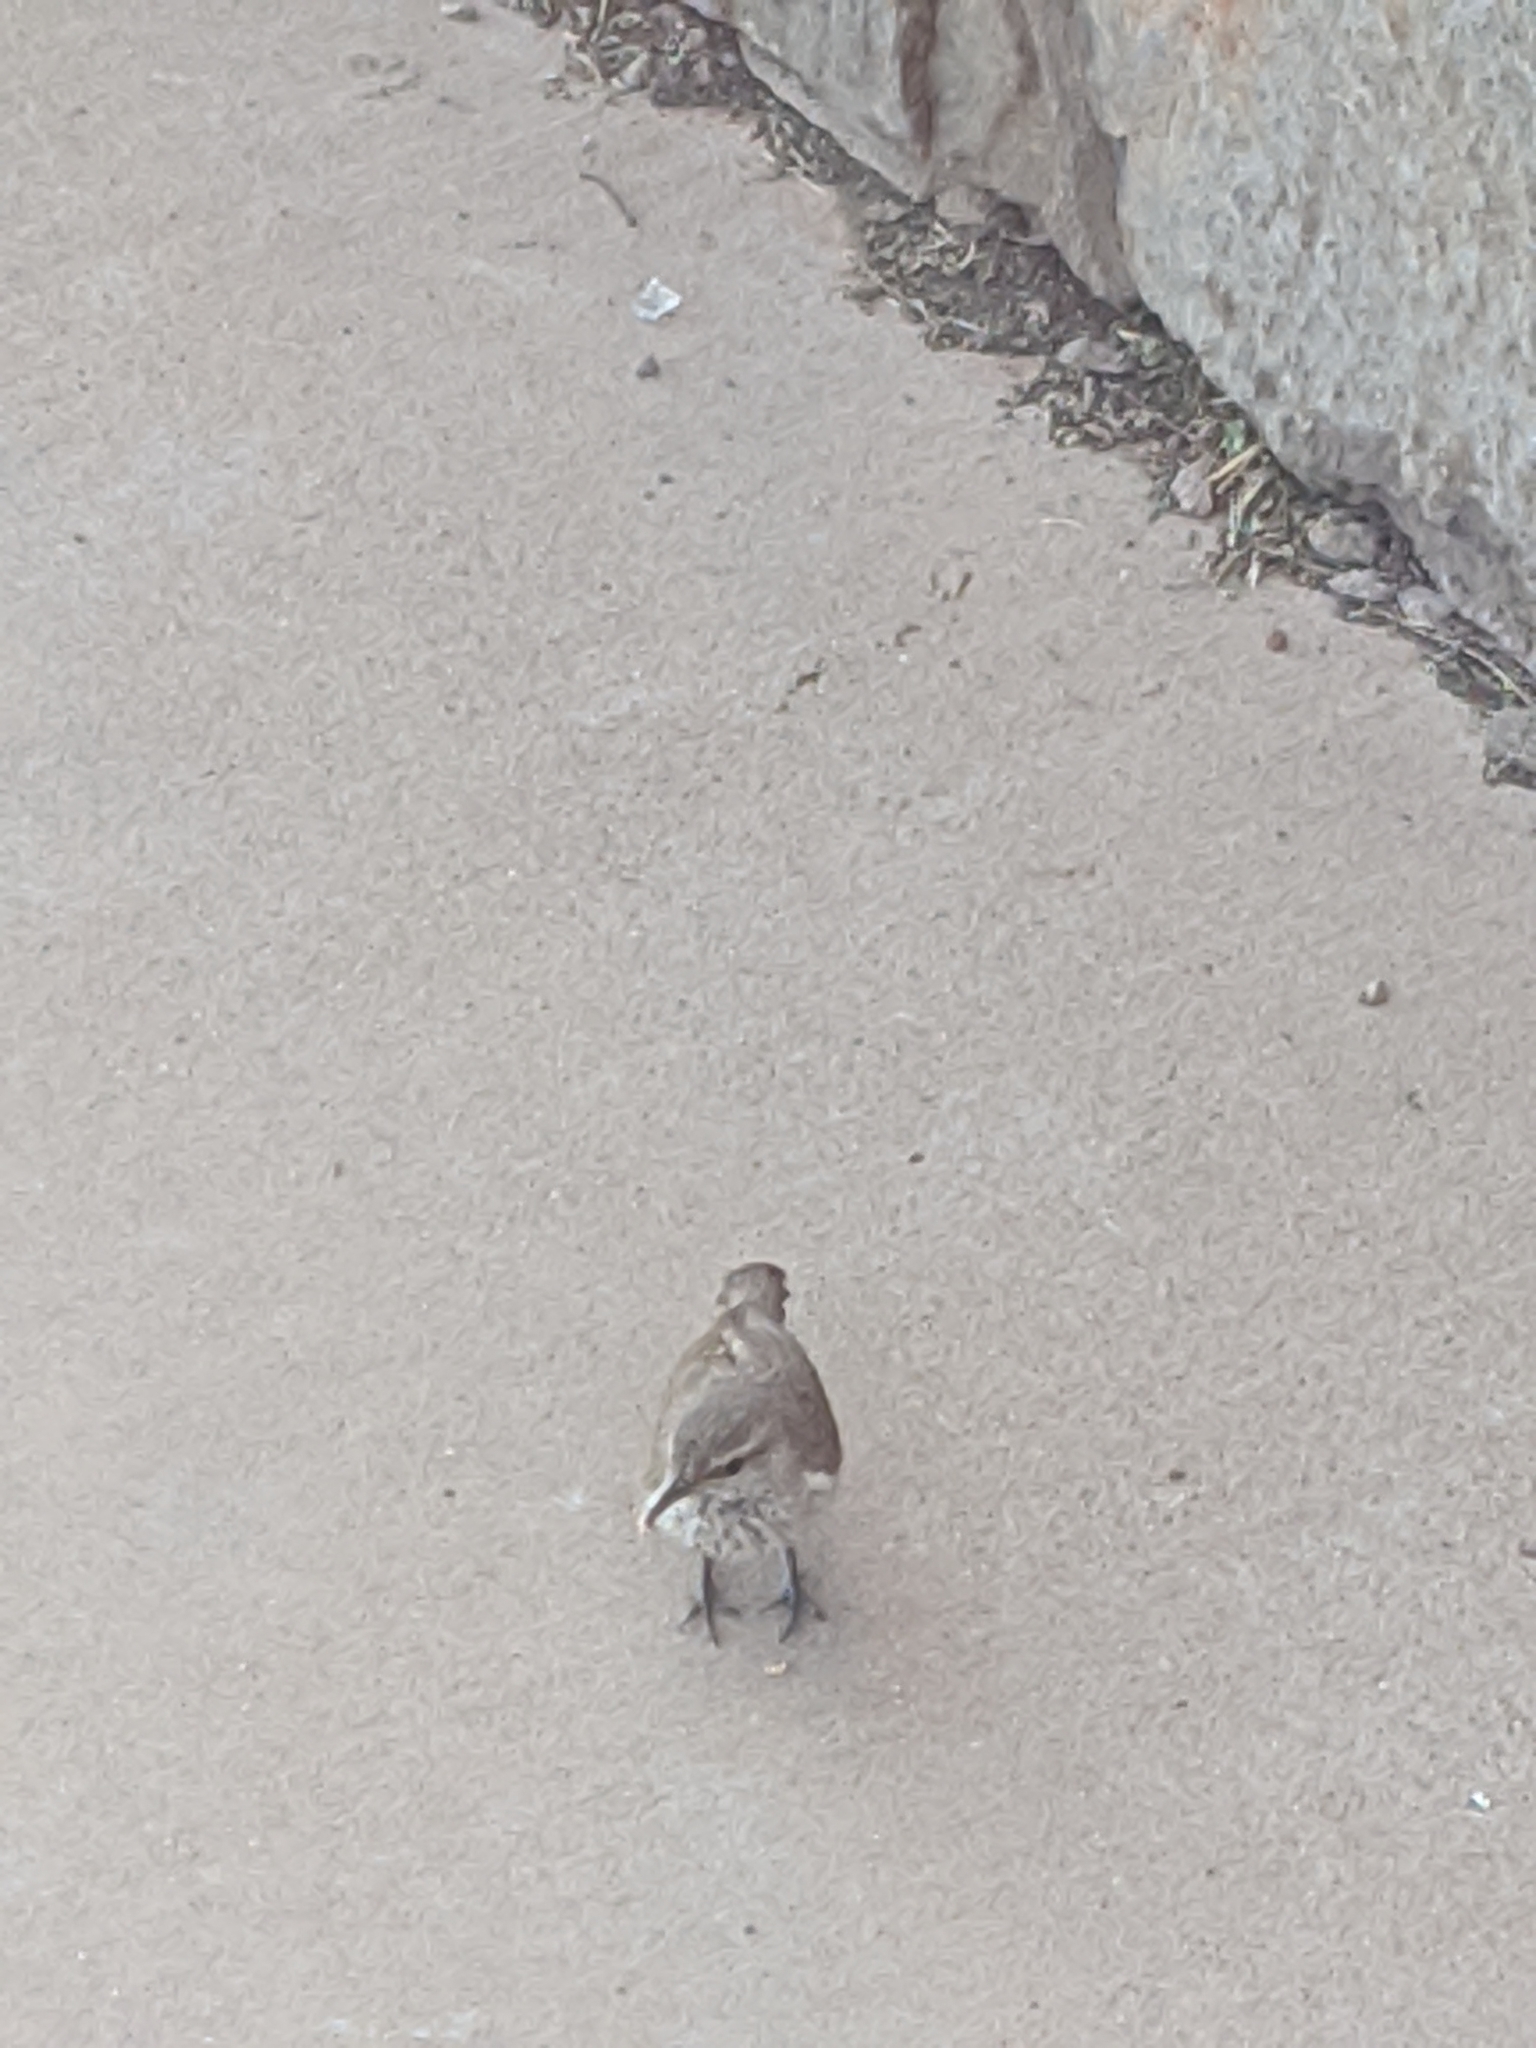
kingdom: Animalia
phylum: Chordata
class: Aves
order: Passeriformes
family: Troglodytidae
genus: Salpinctes
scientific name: Salpinctes obsoletus
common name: Rock wren
